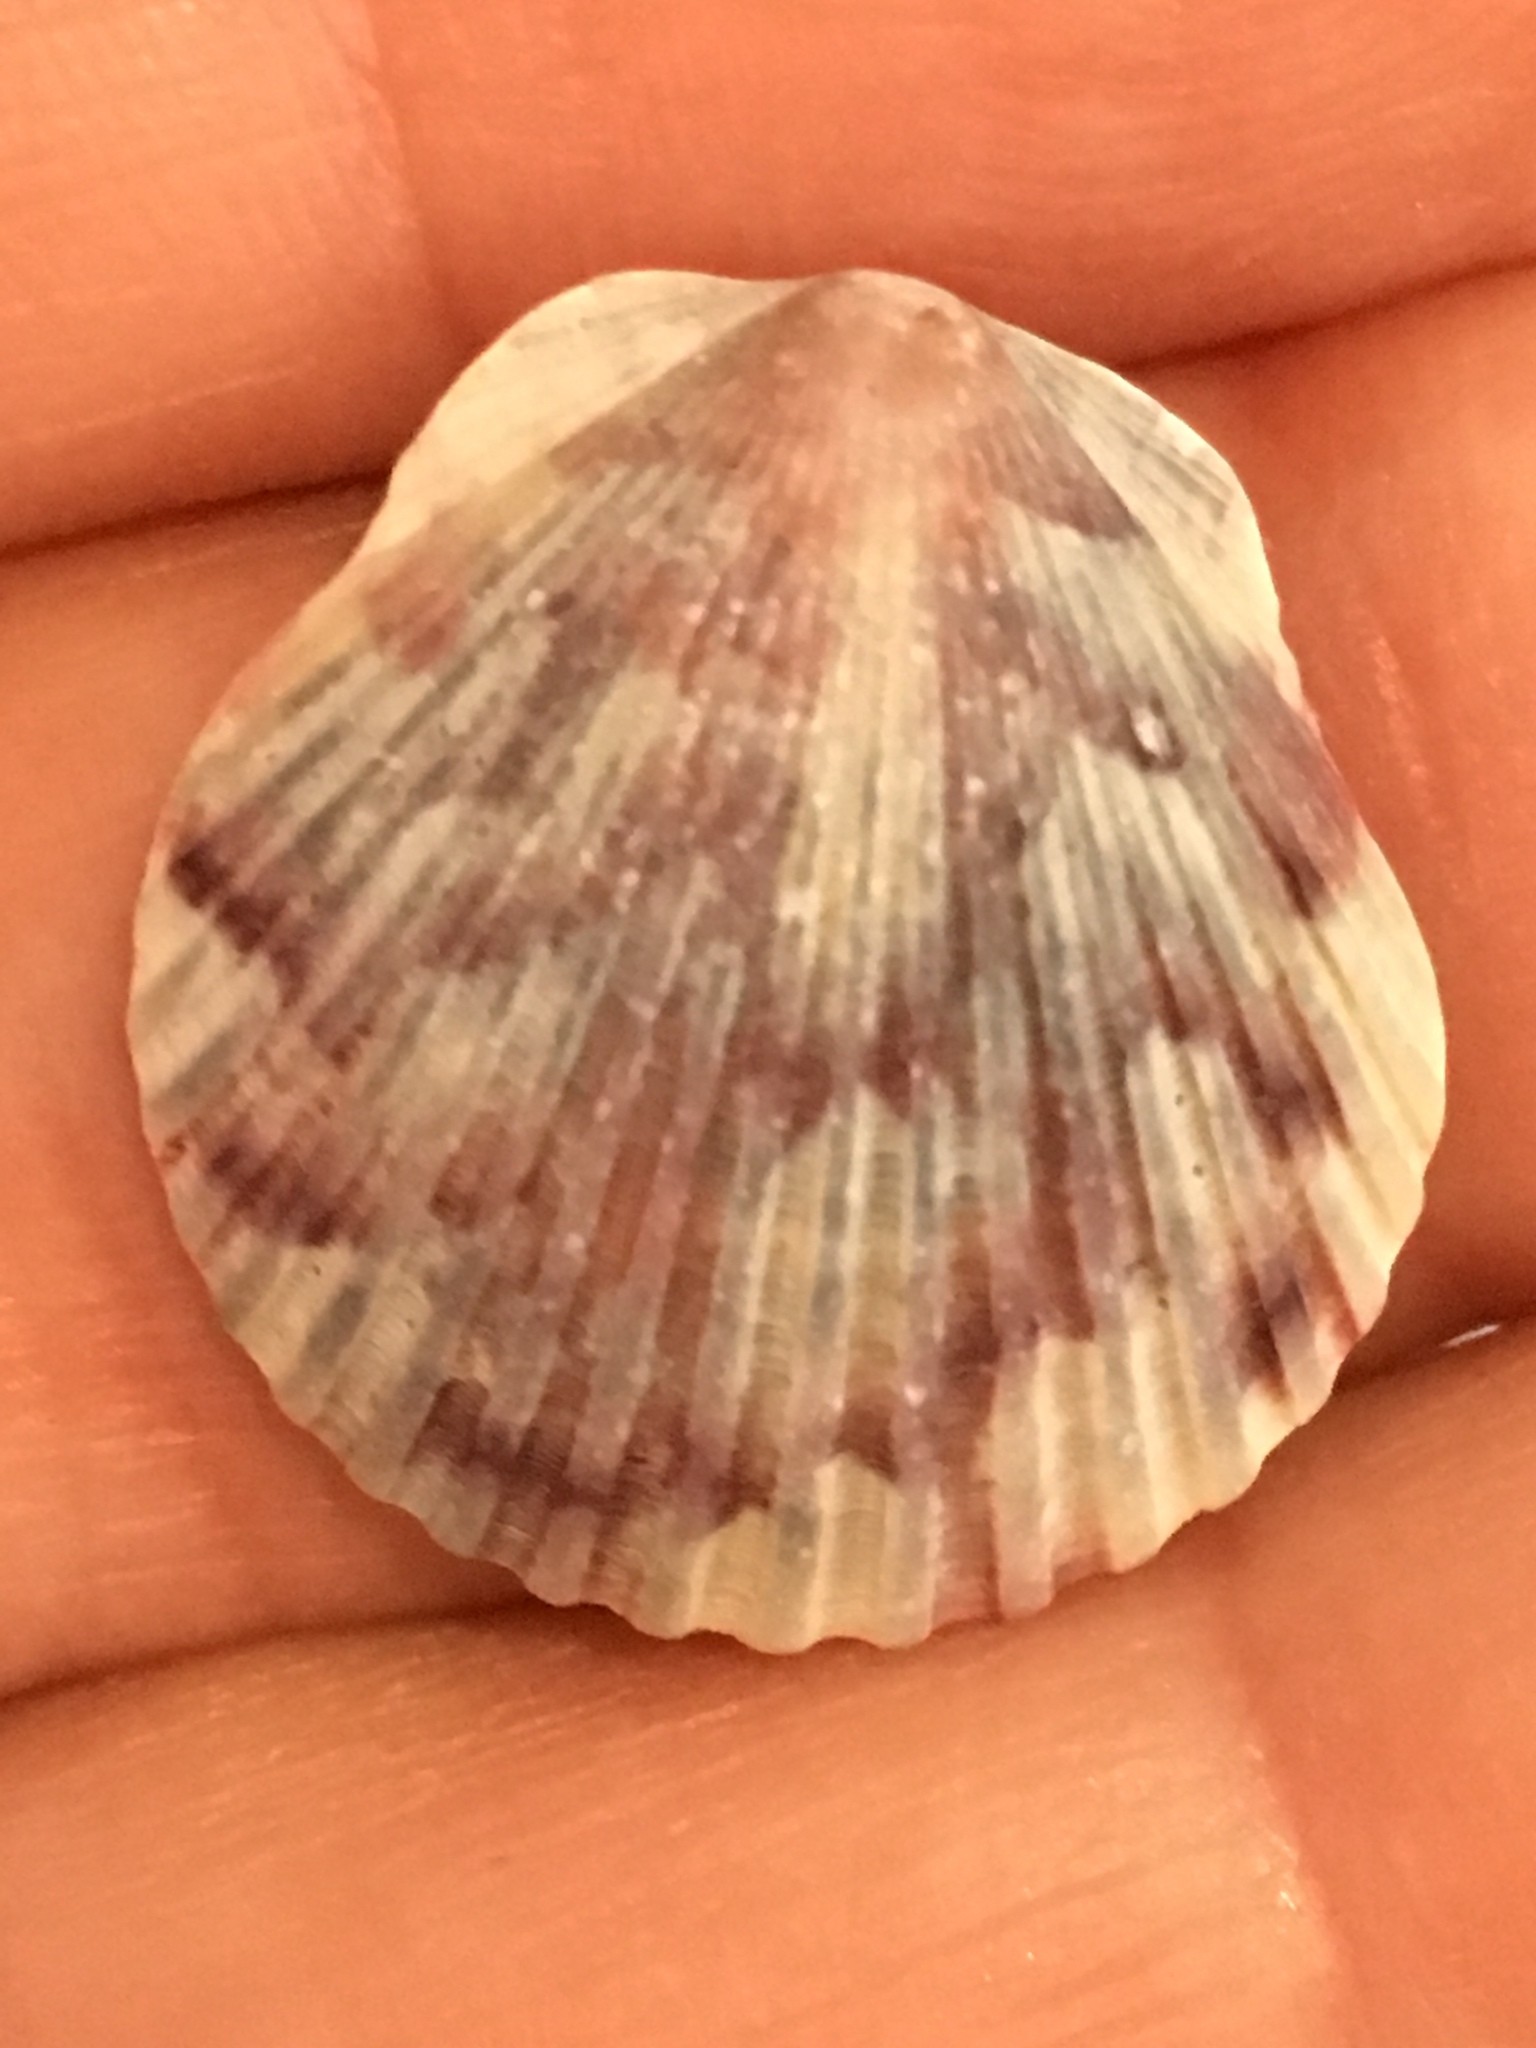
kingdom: Animalia
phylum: Mollusca
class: Bivalvia
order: Pectinida
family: Pectinidae
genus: Argopecten
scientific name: Argopecten gibbus
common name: Atlantic calico scallop
